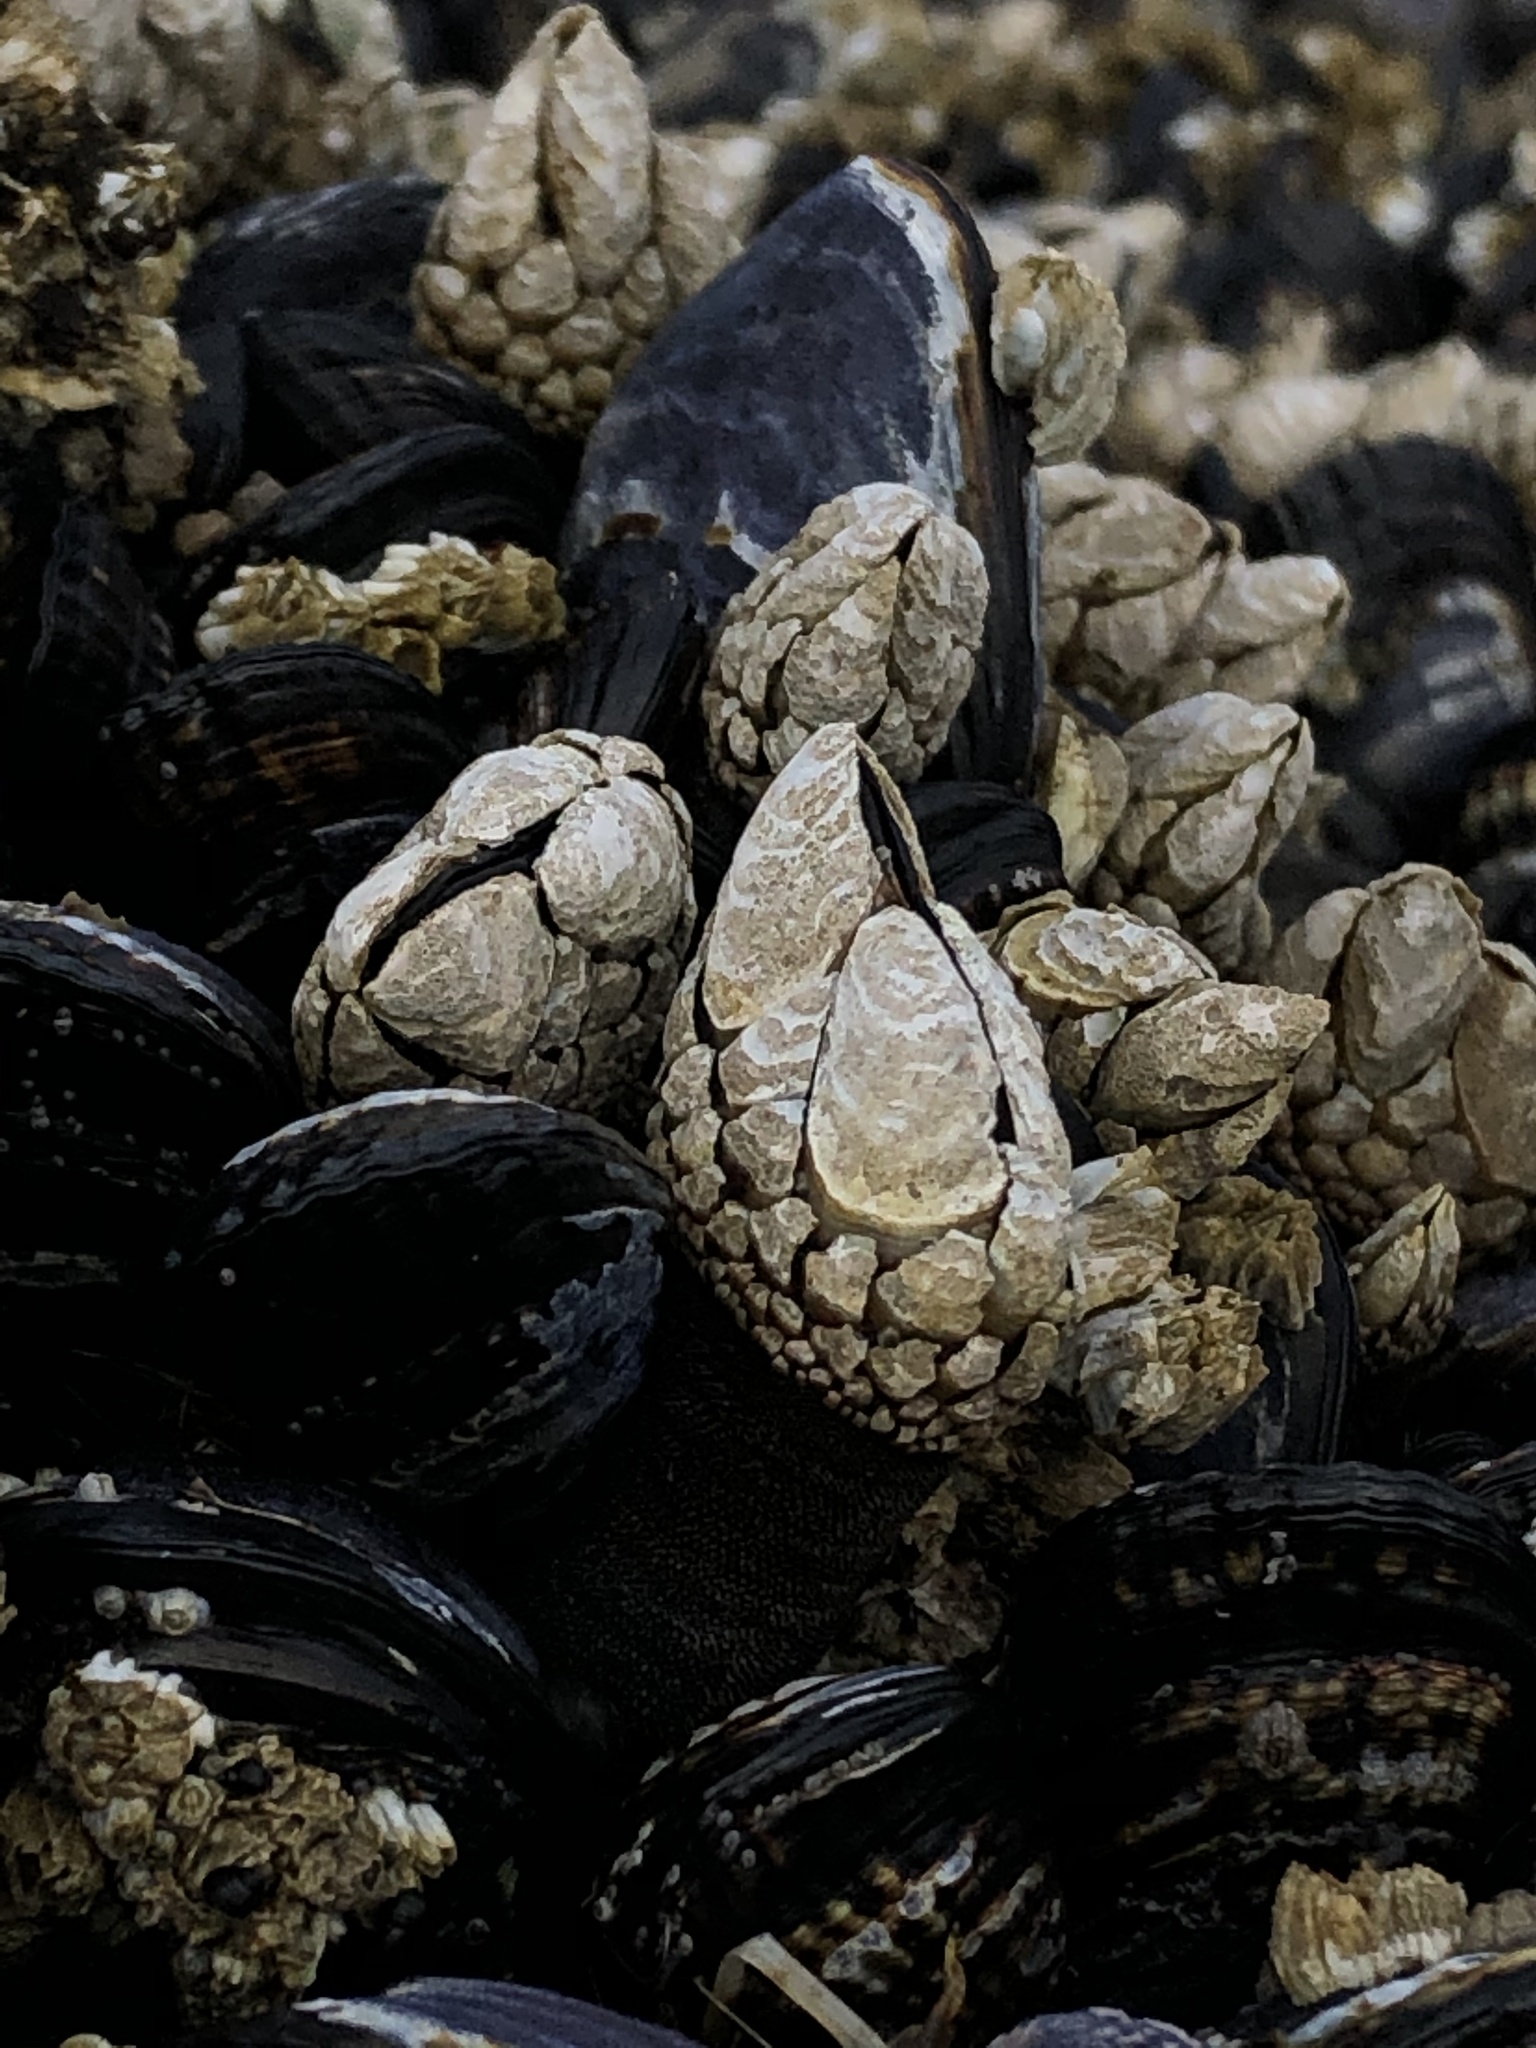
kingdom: Animalia
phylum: Arthropoda
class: Maxillopoda
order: Pedunculata
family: Pollicipedidae
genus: Pollicipes
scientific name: Pollicipes polymerus
